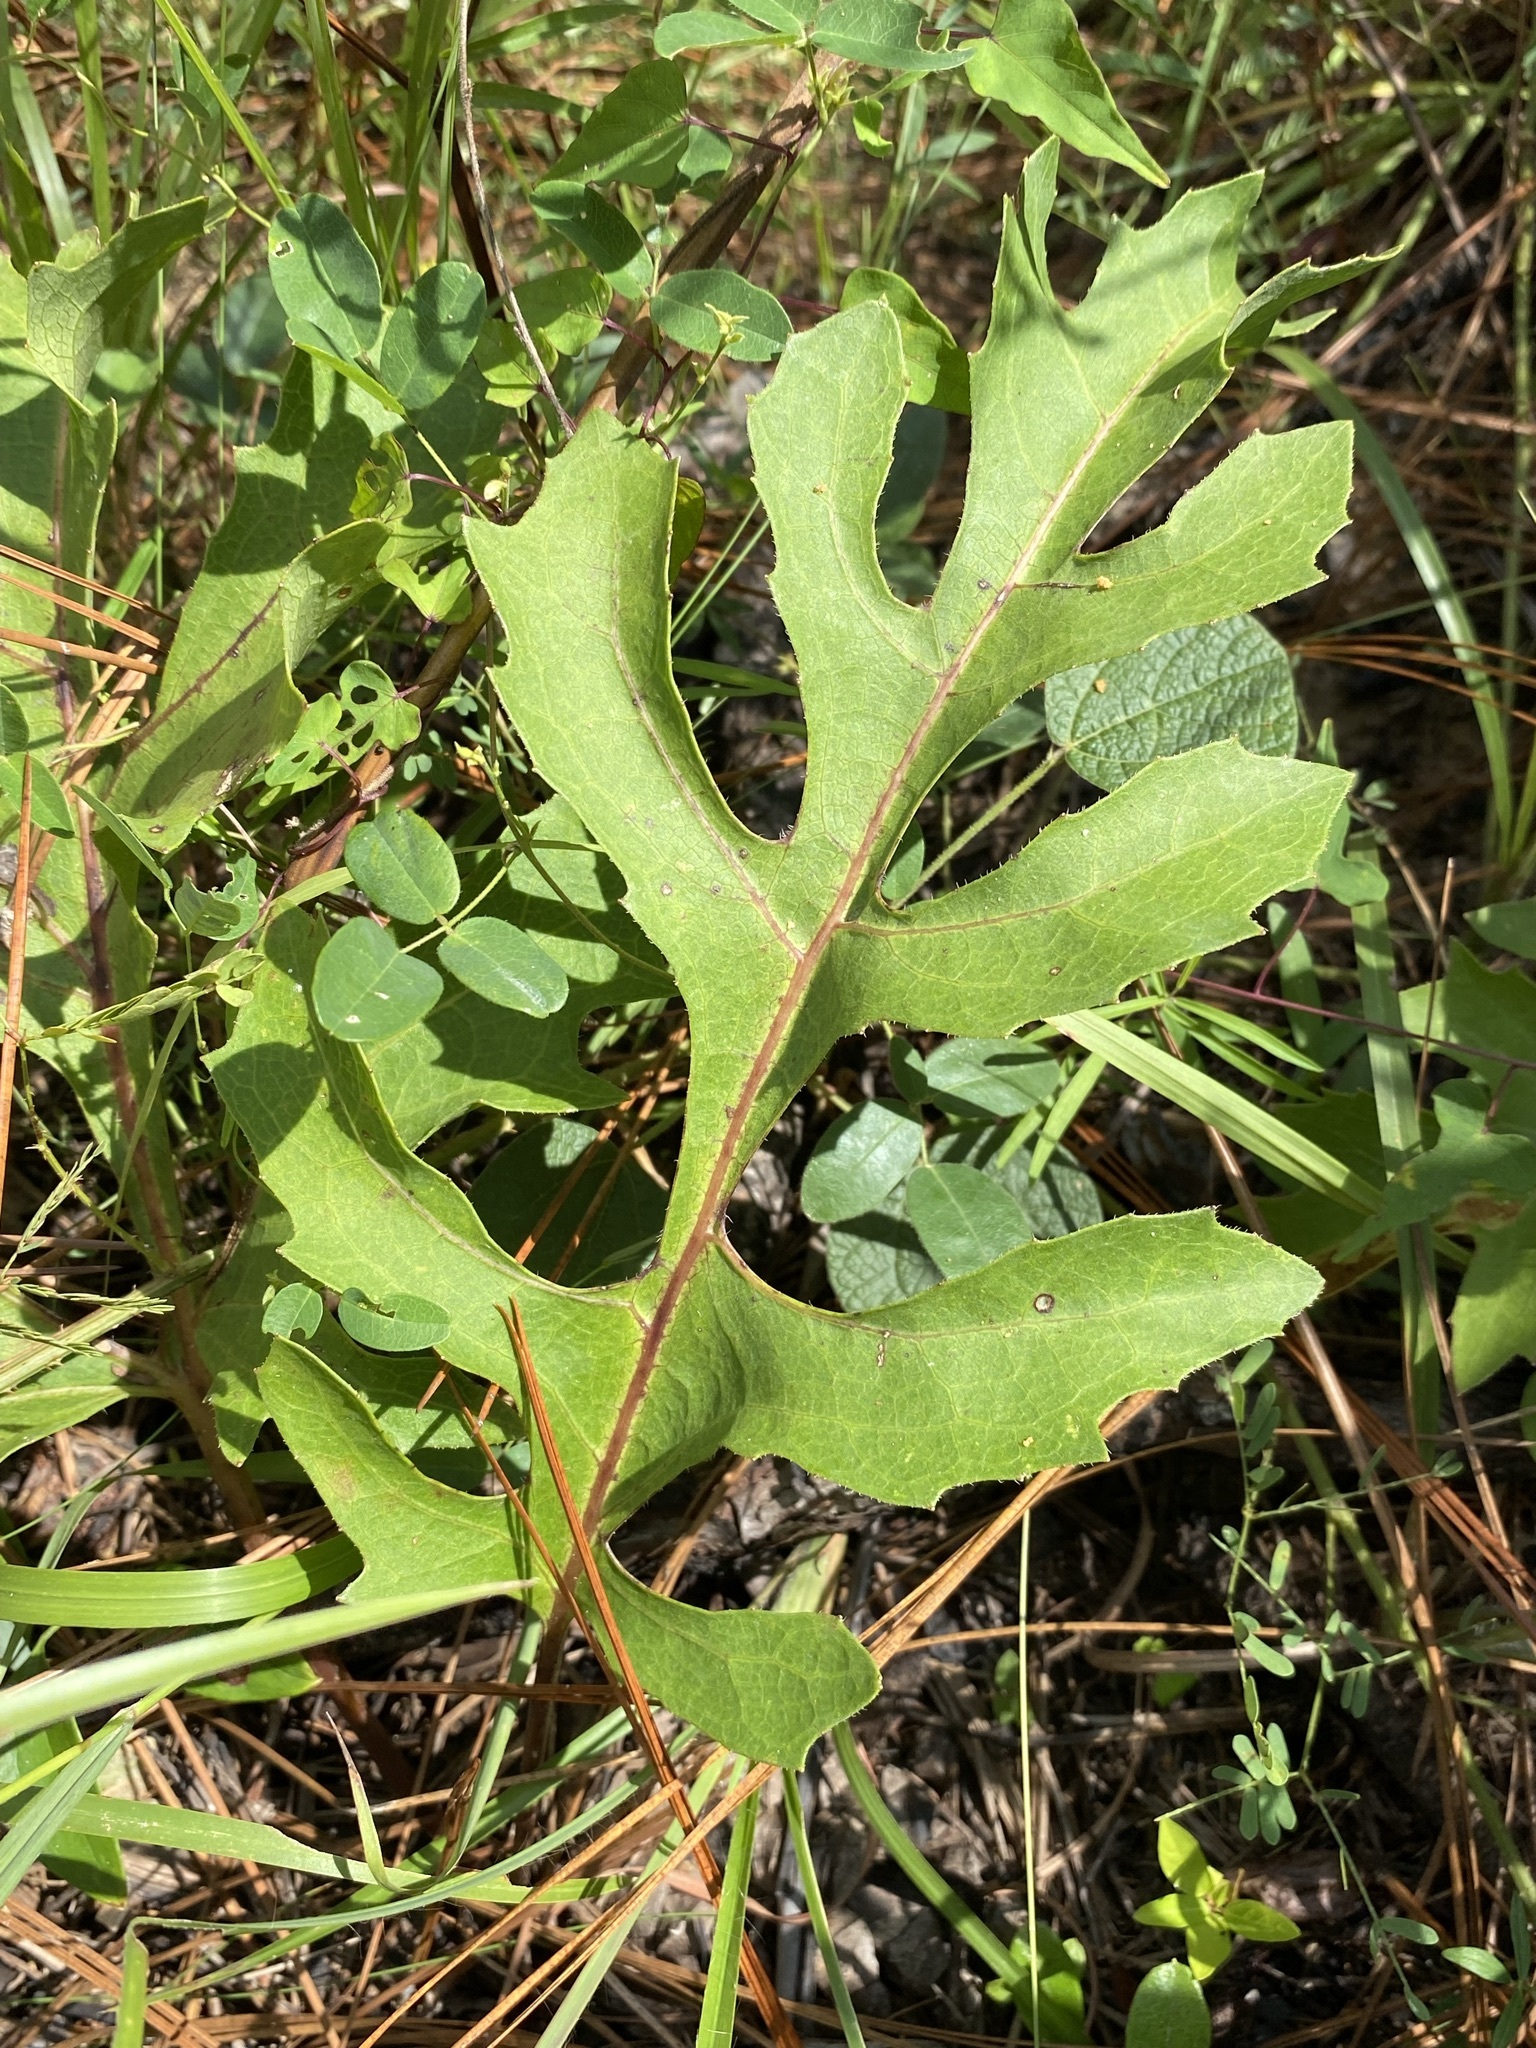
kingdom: Plantae
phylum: Tracheophyta
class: Magnoliopsida
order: Asterales
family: Asteraceae
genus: Silphium
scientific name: Silphium compositum
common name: Lesser basal-leaf rosinweed
